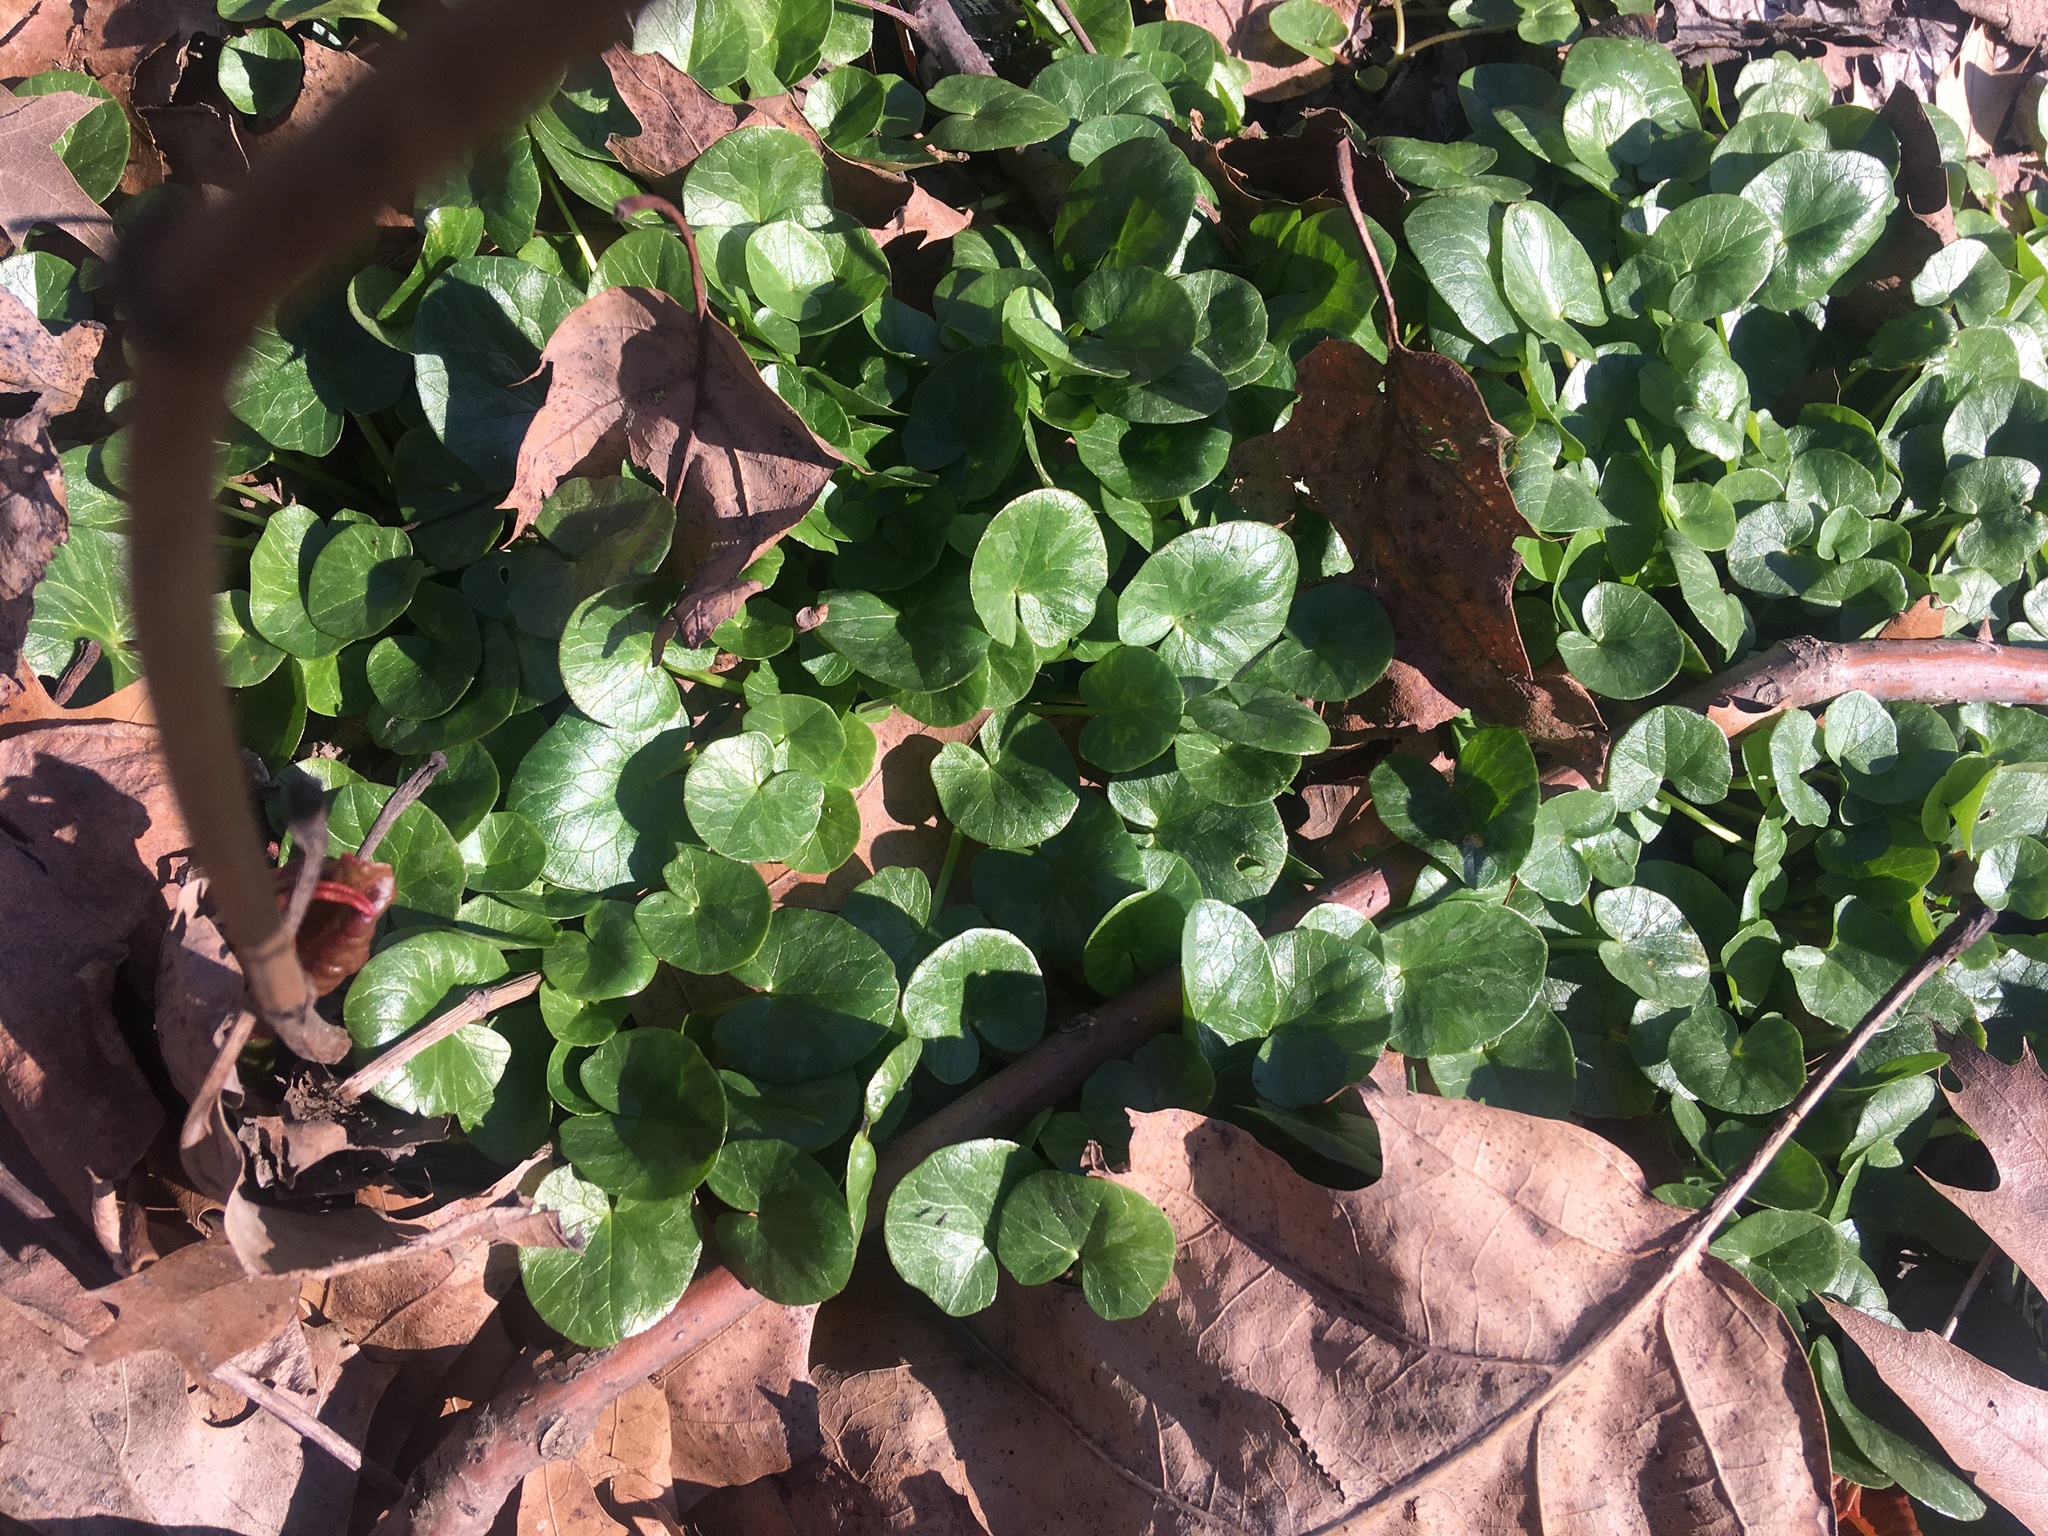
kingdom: Plantae
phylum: Tracheophyta
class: Magnoliopsida
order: Ranunculales
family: Ranunculaceae
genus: Ficaria
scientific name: Ficaria verna
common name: Lesser celandine
